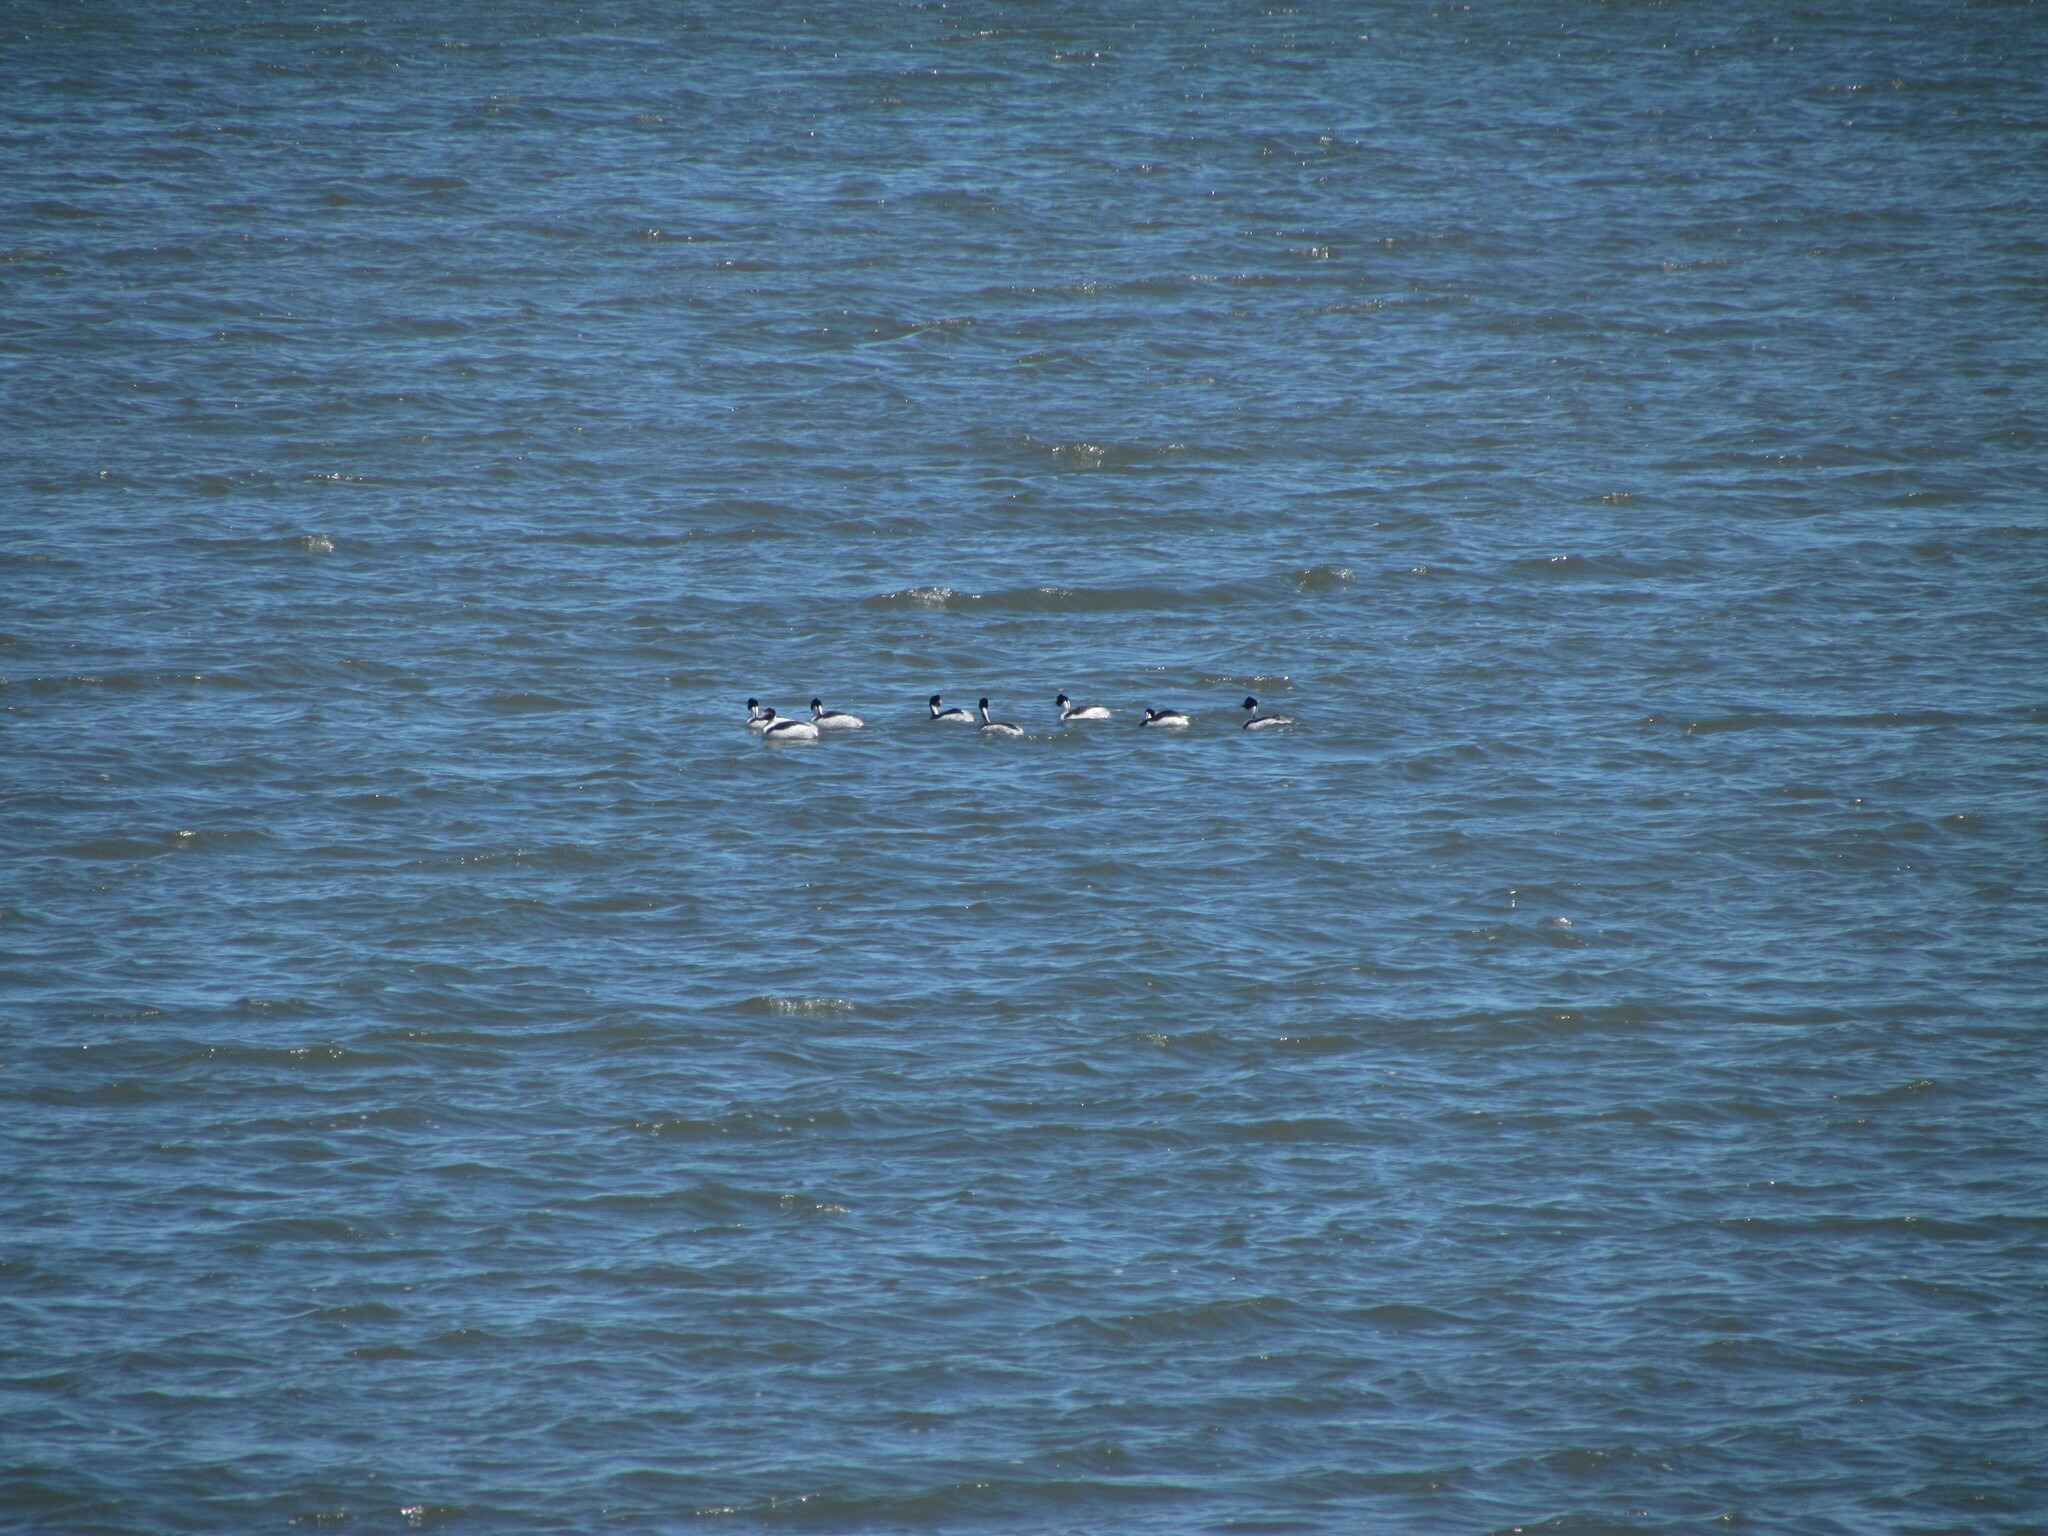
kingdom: Animalia
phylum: Chordata
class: Aves
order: Podicipediformes
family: Podicipedidae
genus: Podiceps
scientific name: Podiceps gallardoi
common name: Hooded grebe
